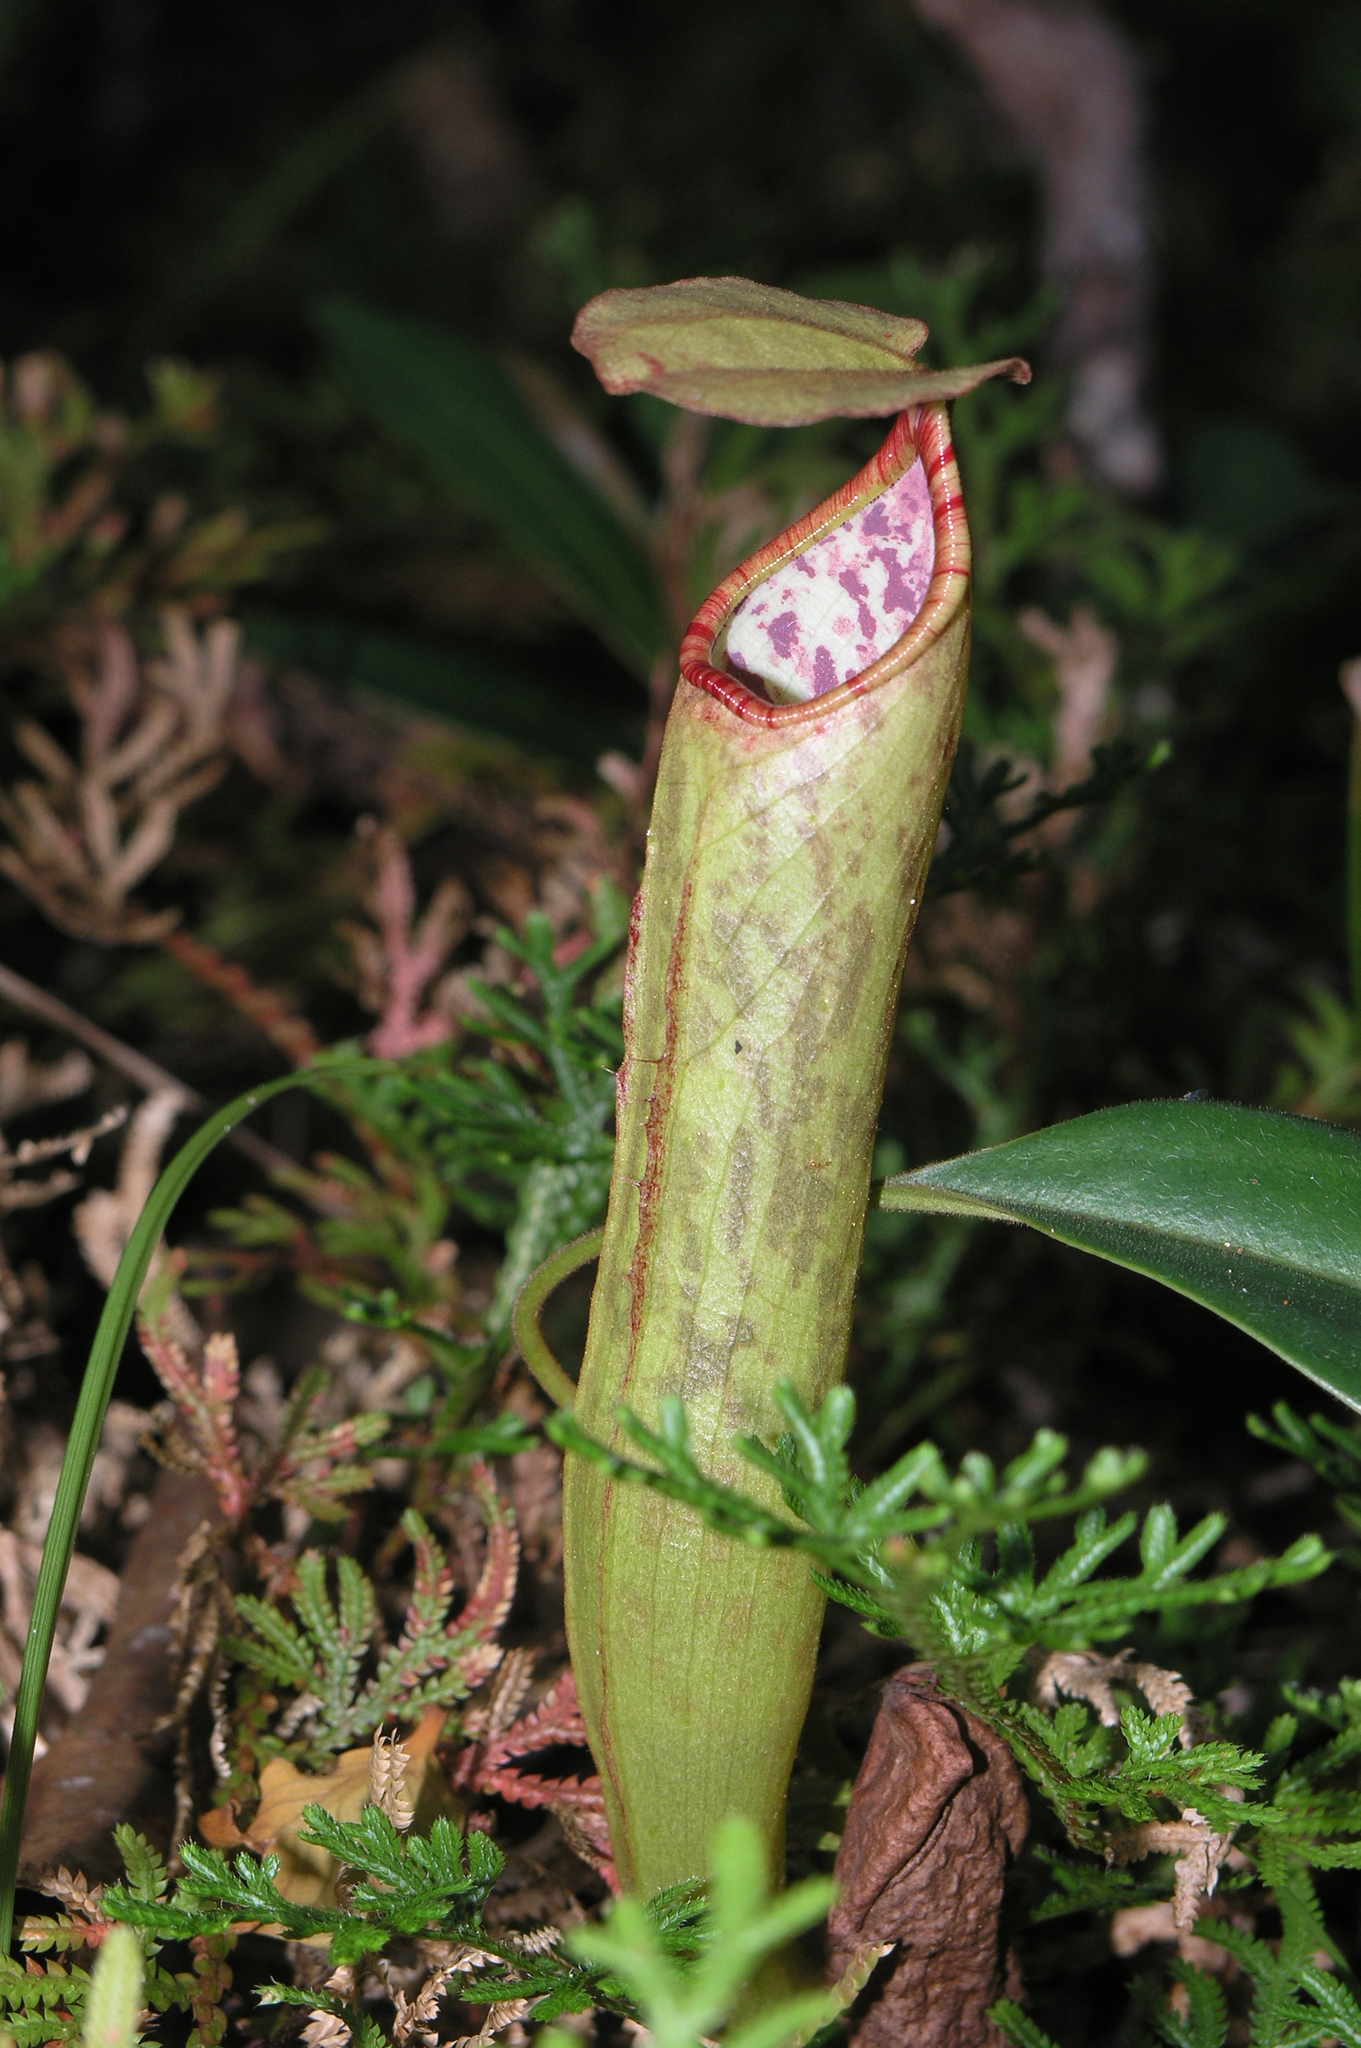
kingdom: Plantae
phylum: Tracheophyta
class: Magnoliopsida
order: Caryophyllales
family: Nepenthaceae
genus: Nepenthes
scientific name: Nepenthes bokorensis
